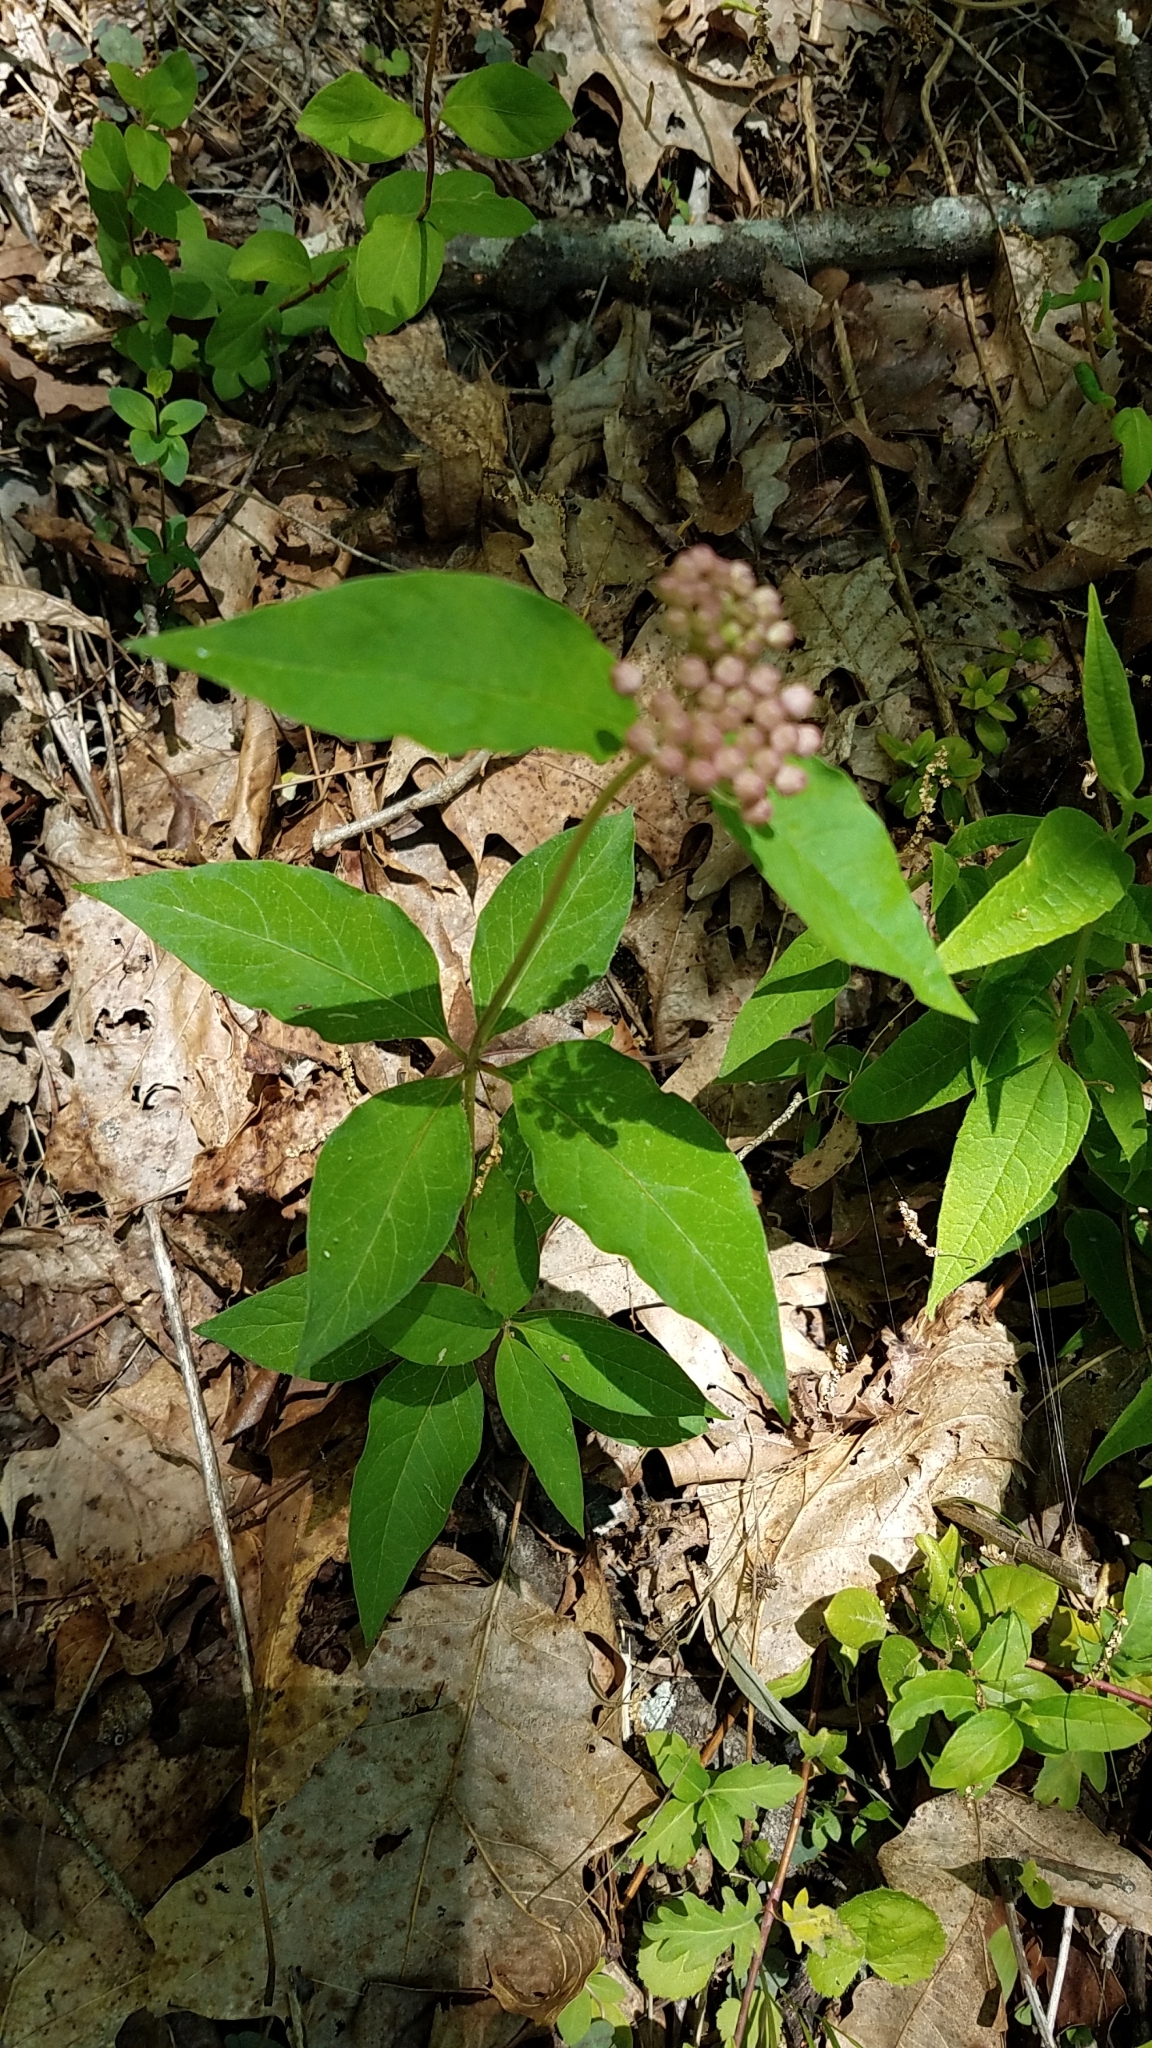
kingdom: Plantae
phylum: Tracheophyta
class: Magnoliopsida
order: Gentianales
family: Apocynaceae
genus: Asclepias
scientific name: Asclepias quadrifolia
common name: Whorled milkweed
